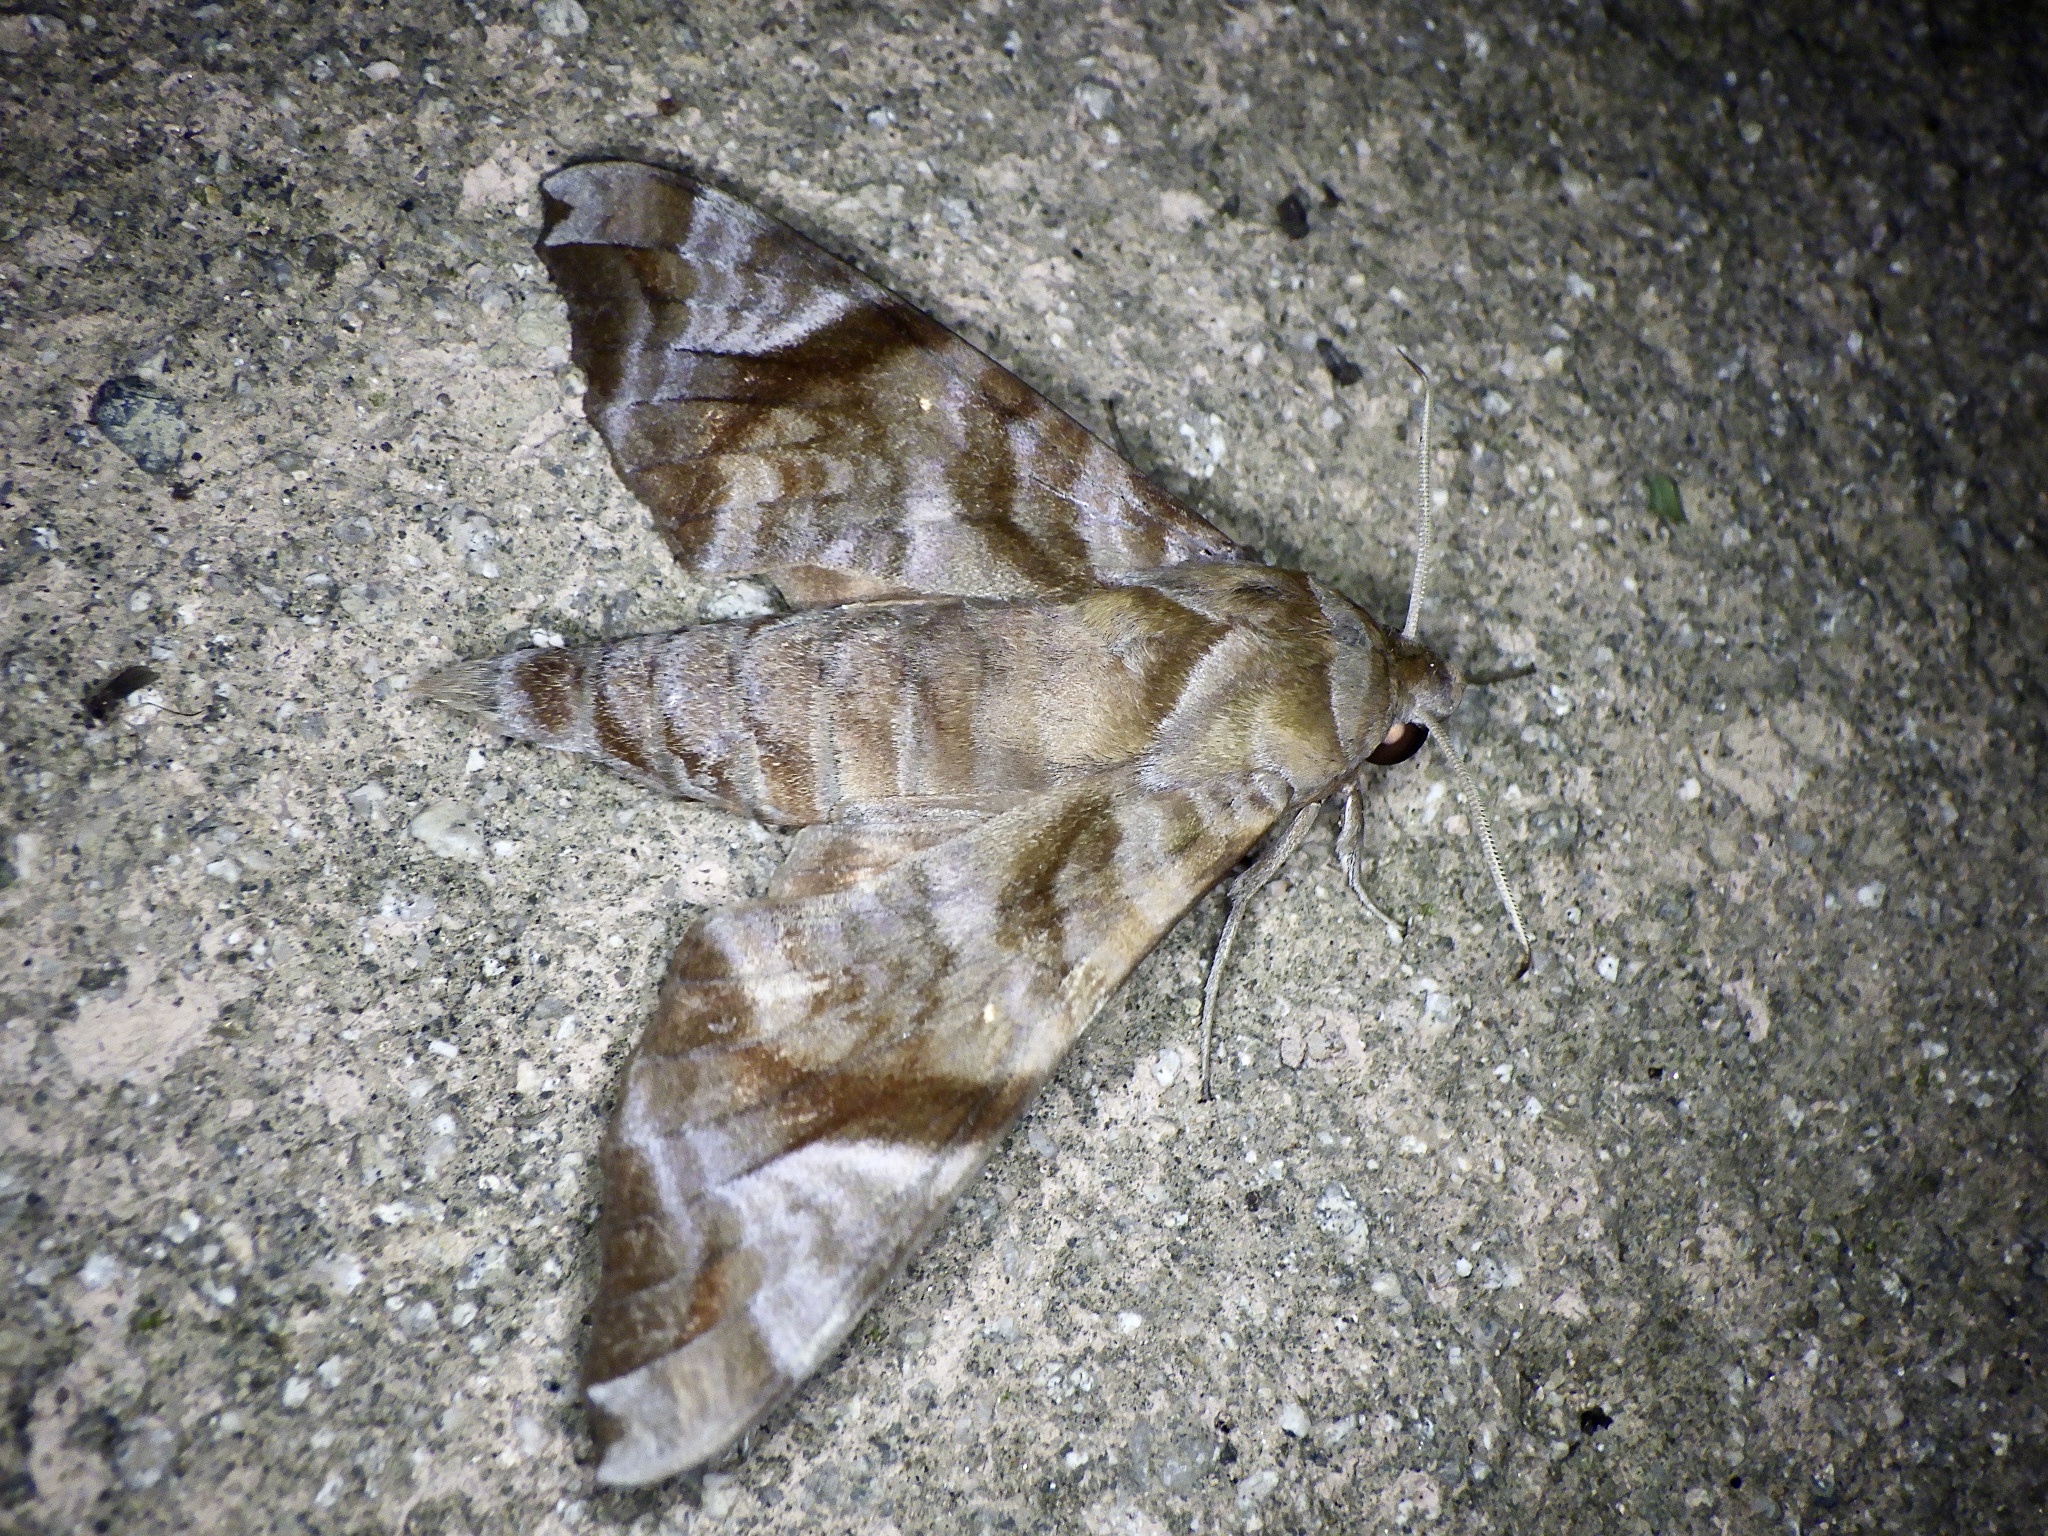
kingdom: Animalia
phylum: Arthropoda
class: Insecta
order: Lepidoptera
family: Sphingidae
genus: Acosmeryx
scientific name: Acosmeryx castanea
